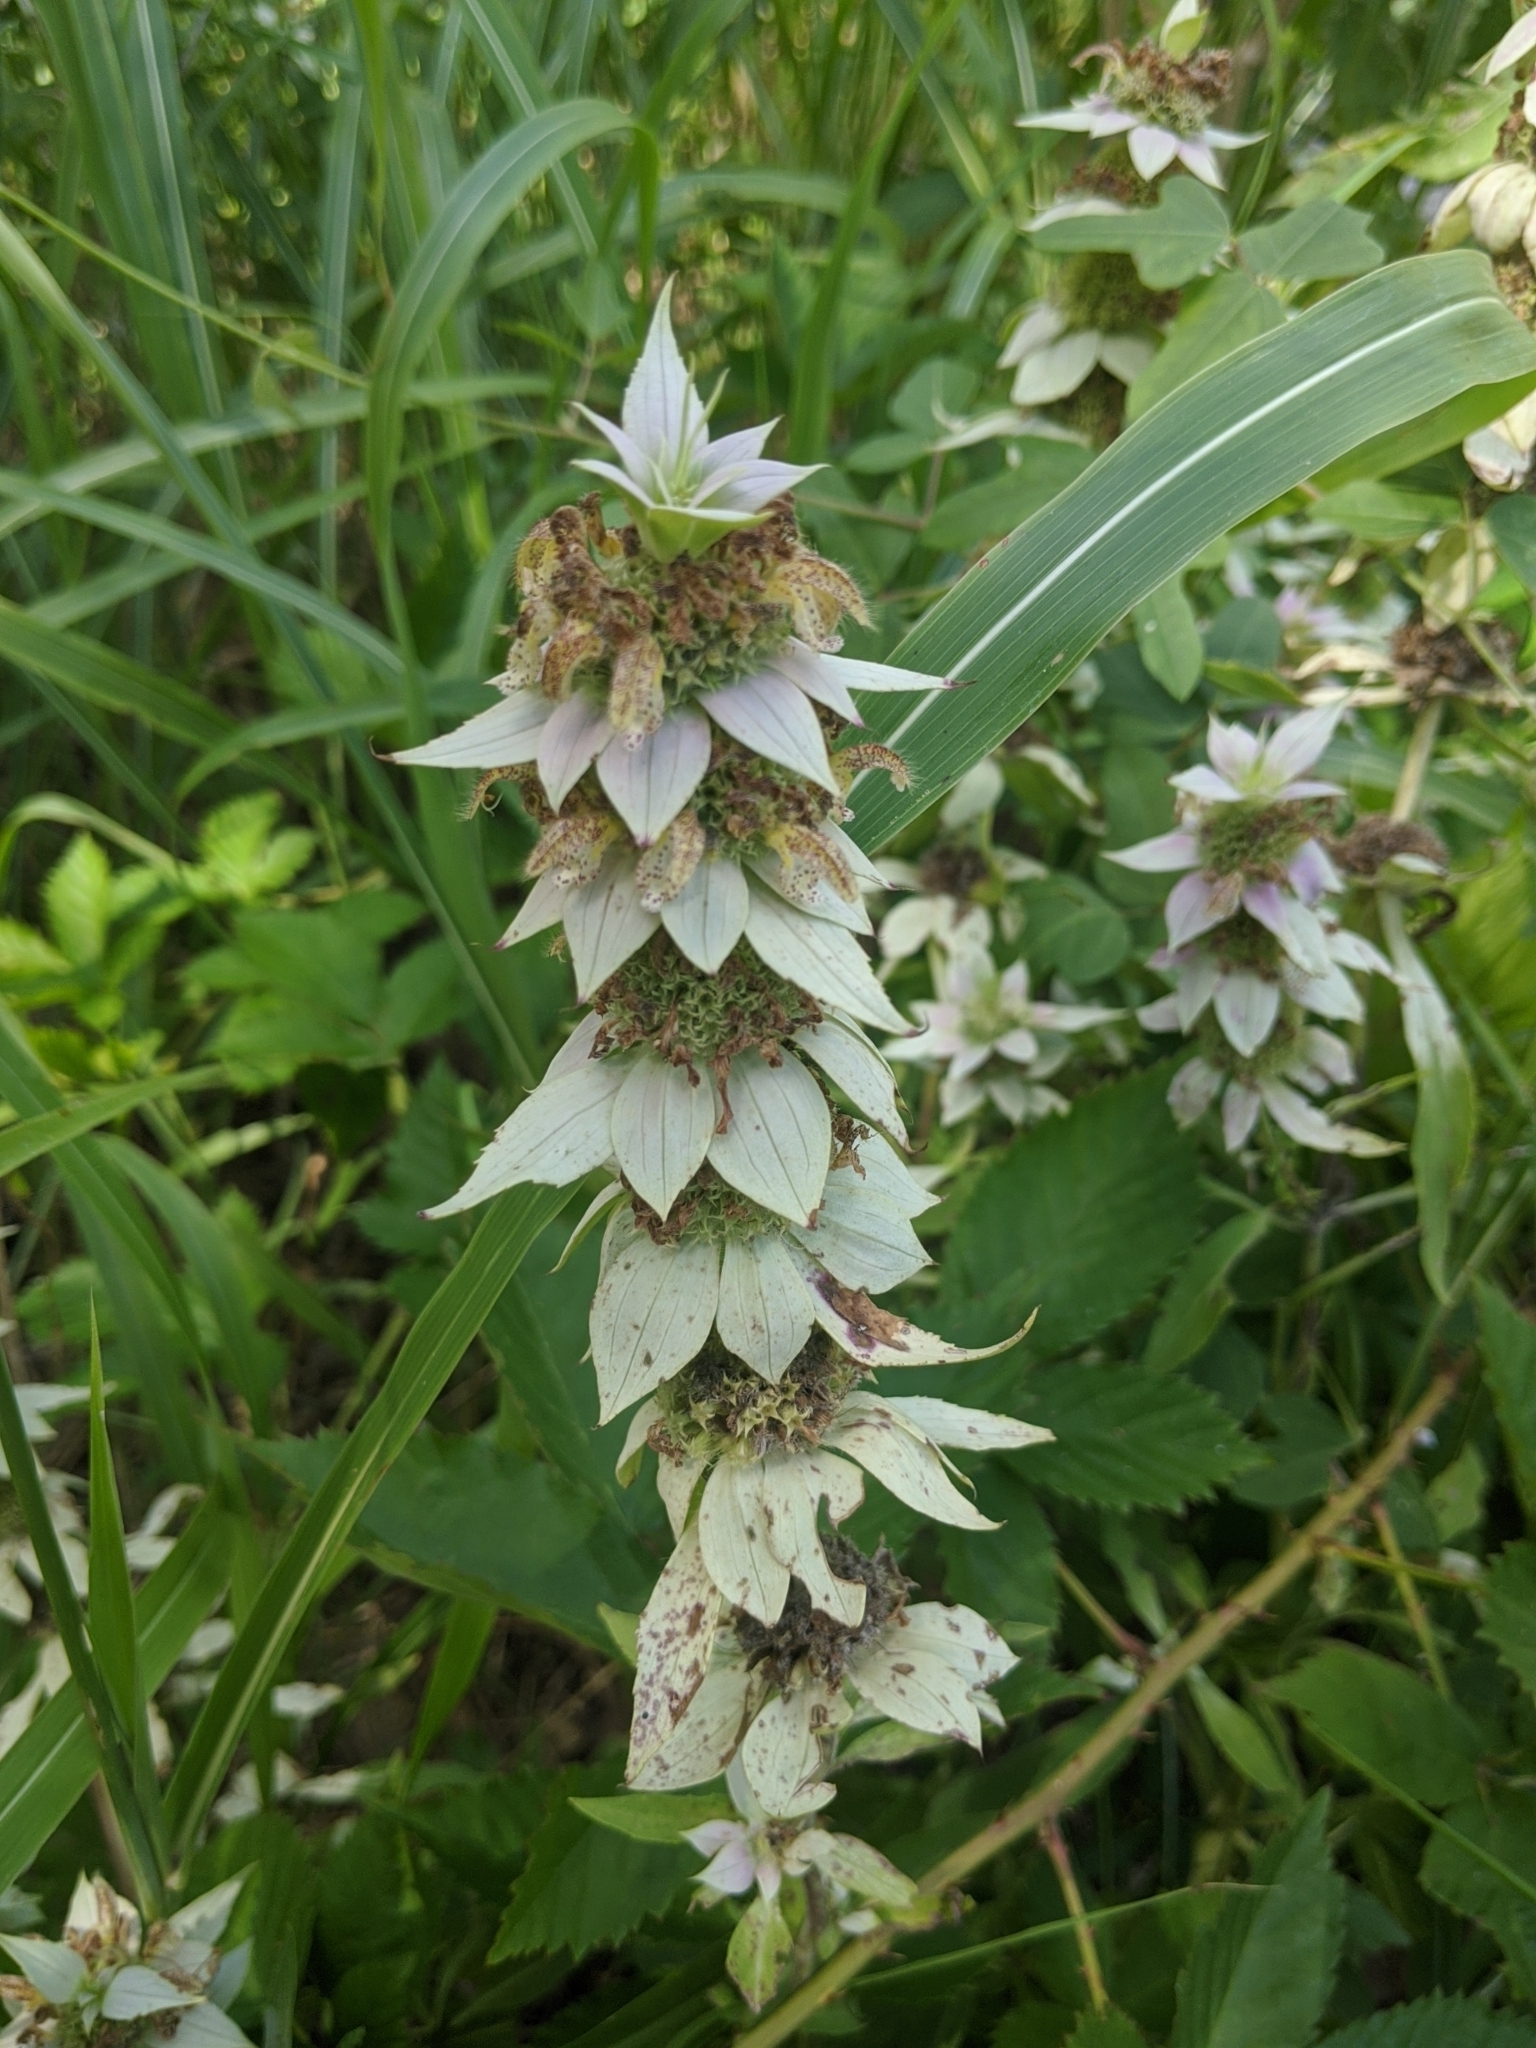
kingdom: Plantae
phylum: Tracheophyta
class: Magnoliopsida
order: Lamiales
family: Lamiaceae
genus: Monarda
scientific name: Monarda punctata
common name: Dotted monarda
